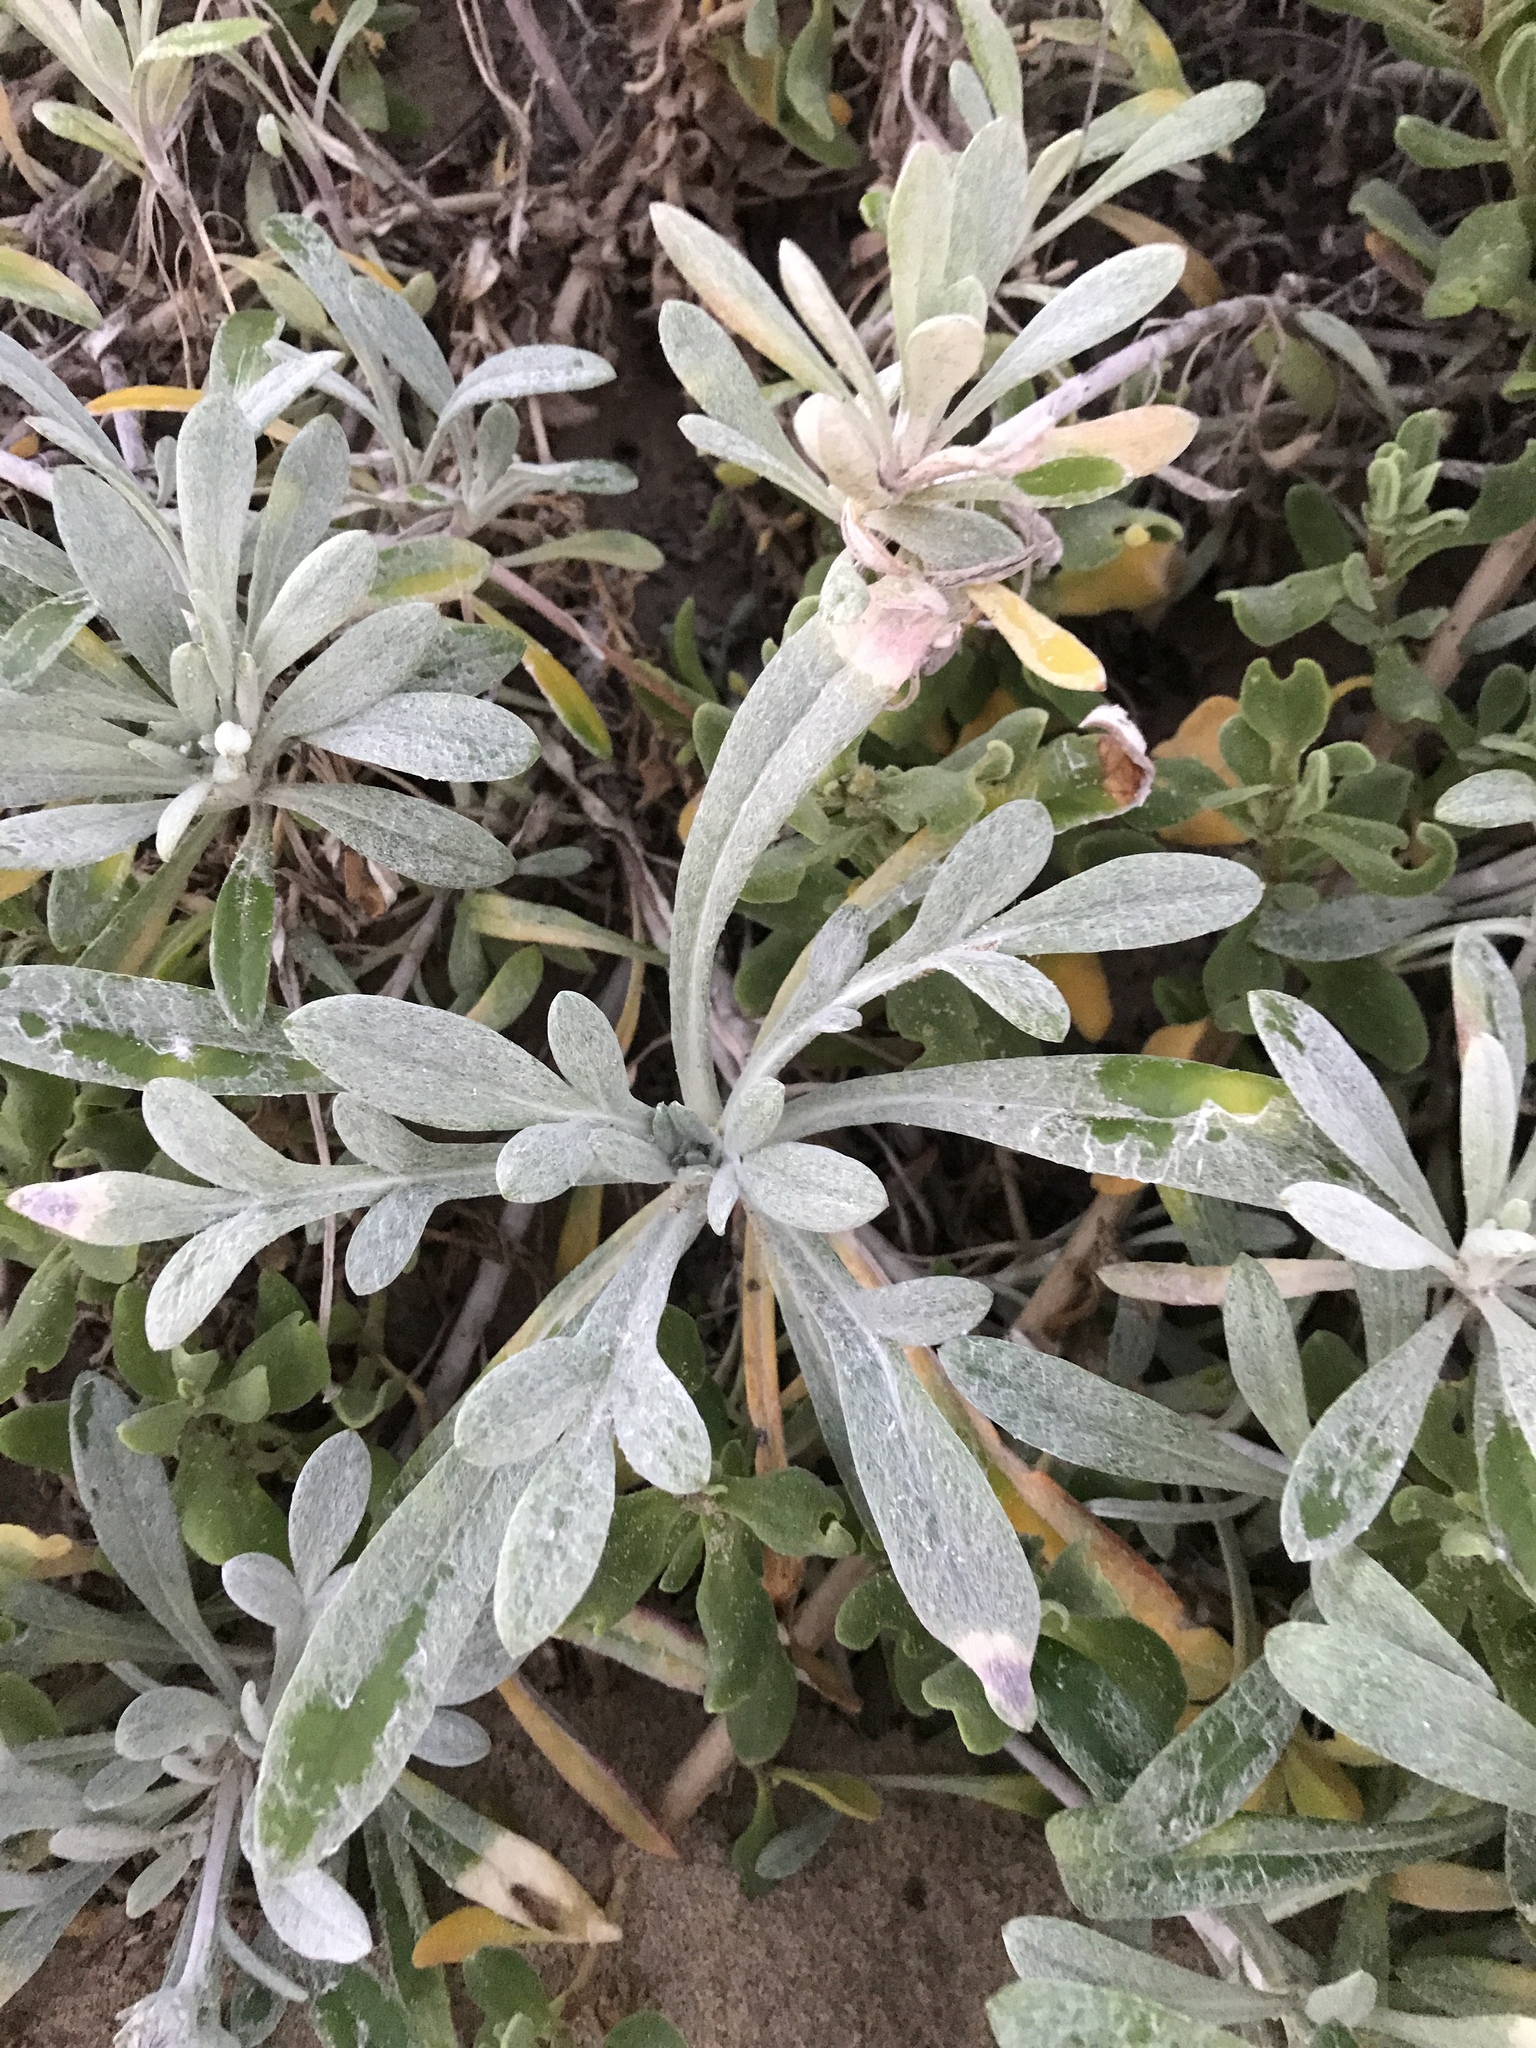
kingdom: Plantae
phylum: Tracheophyta
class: Magnoliopsida
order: Asterales
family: Asteraceae
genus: Gazania
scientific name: Gazania rigens
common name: Treasureflower
